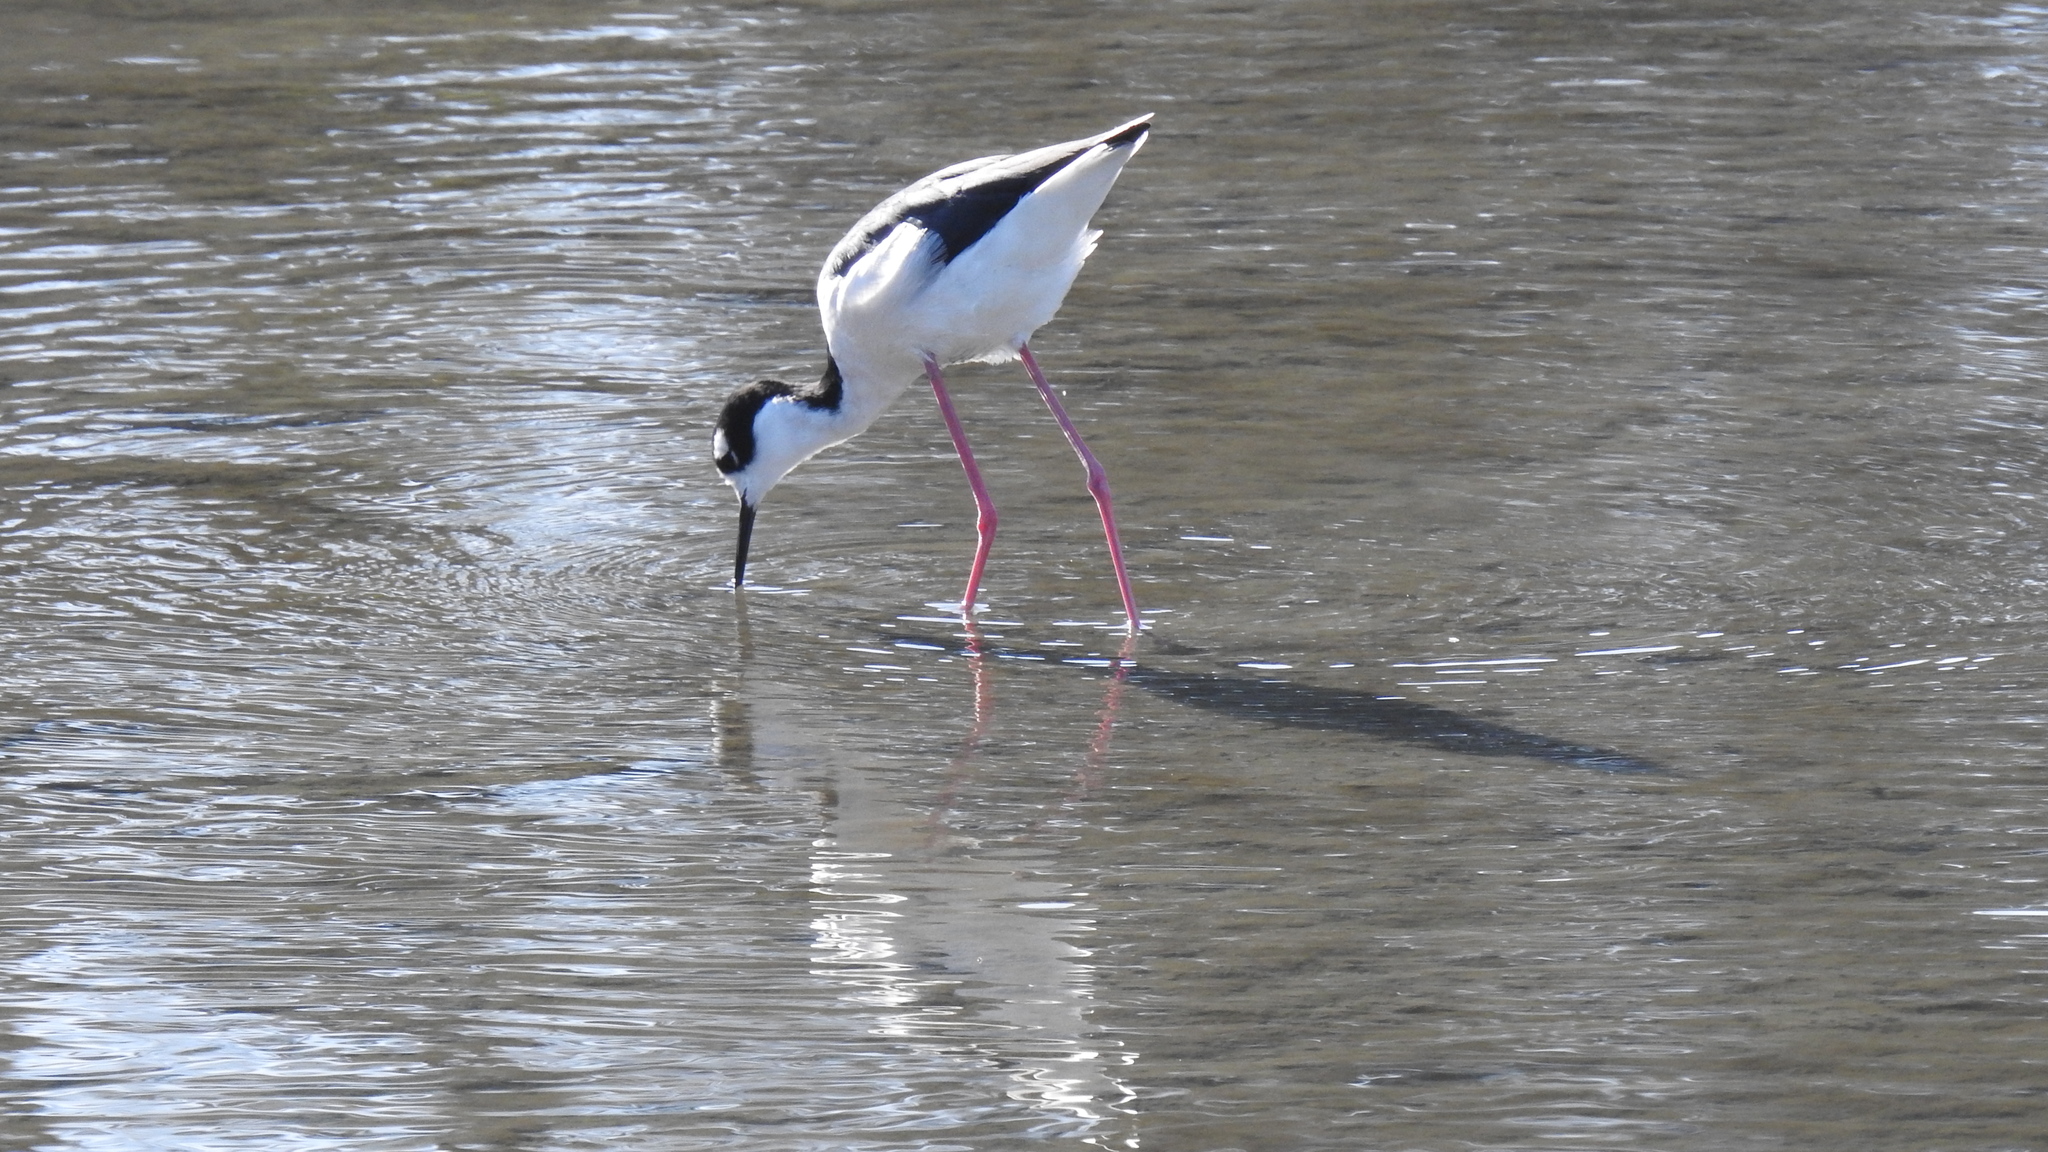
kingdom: Animalia
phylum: Chordata
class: Aves
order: Charadriiformes
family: Recurvirostridae
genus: Himantopus
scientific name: Himantopus mexicanus
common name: Black-necked stilt
